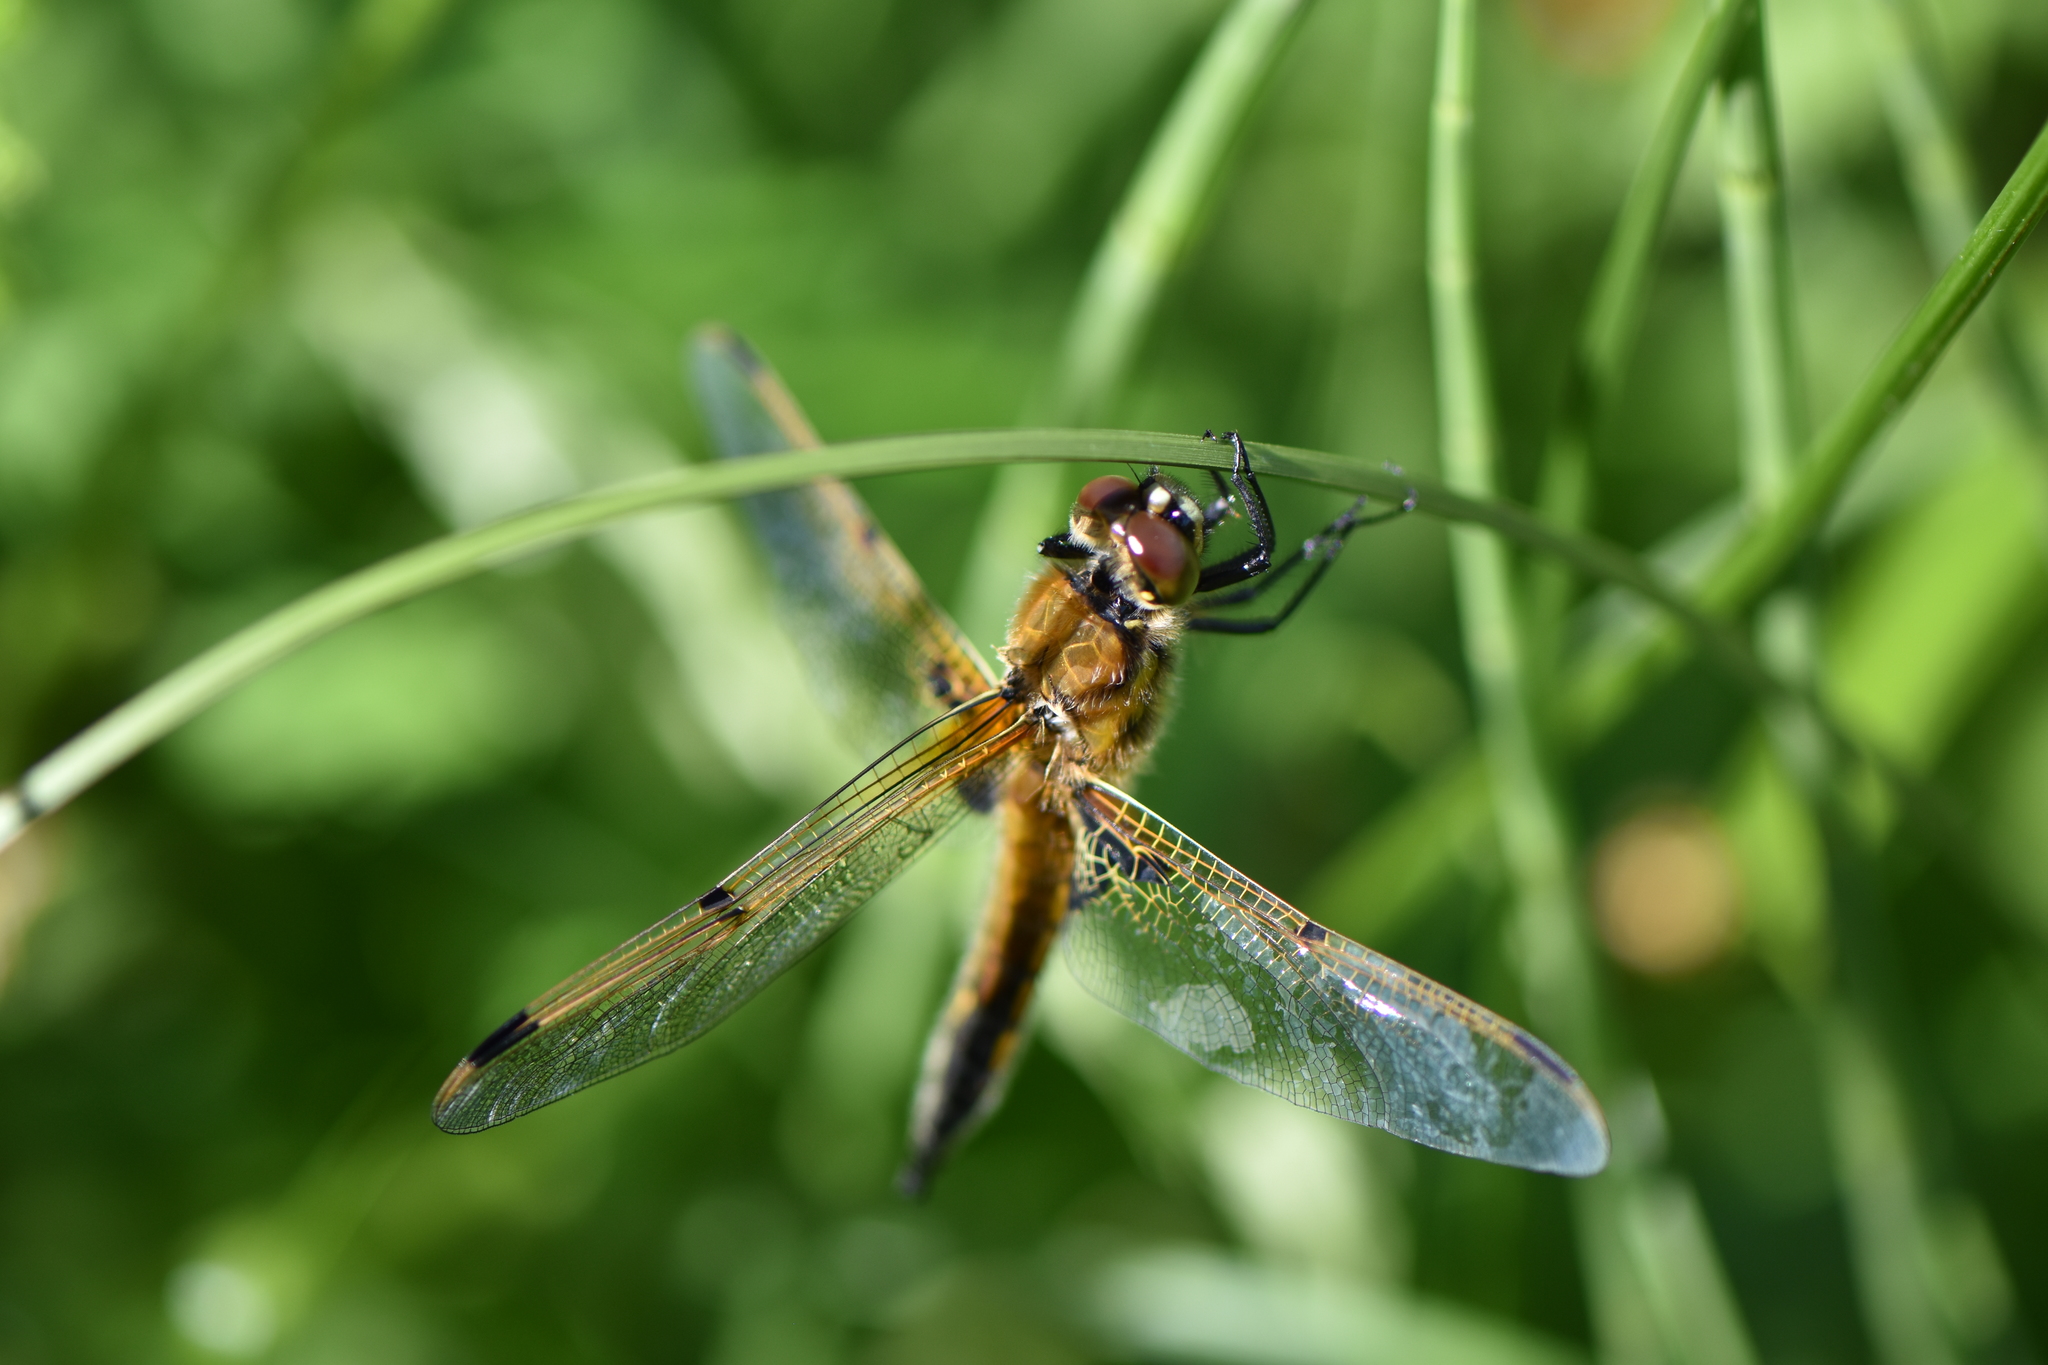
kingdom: Animalia
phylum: Arthropoda
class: Insecta
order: Odonata
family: Libellulidae
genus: Libellula
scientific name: Libellula quadrimaculata
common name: Four-spotted chaser
